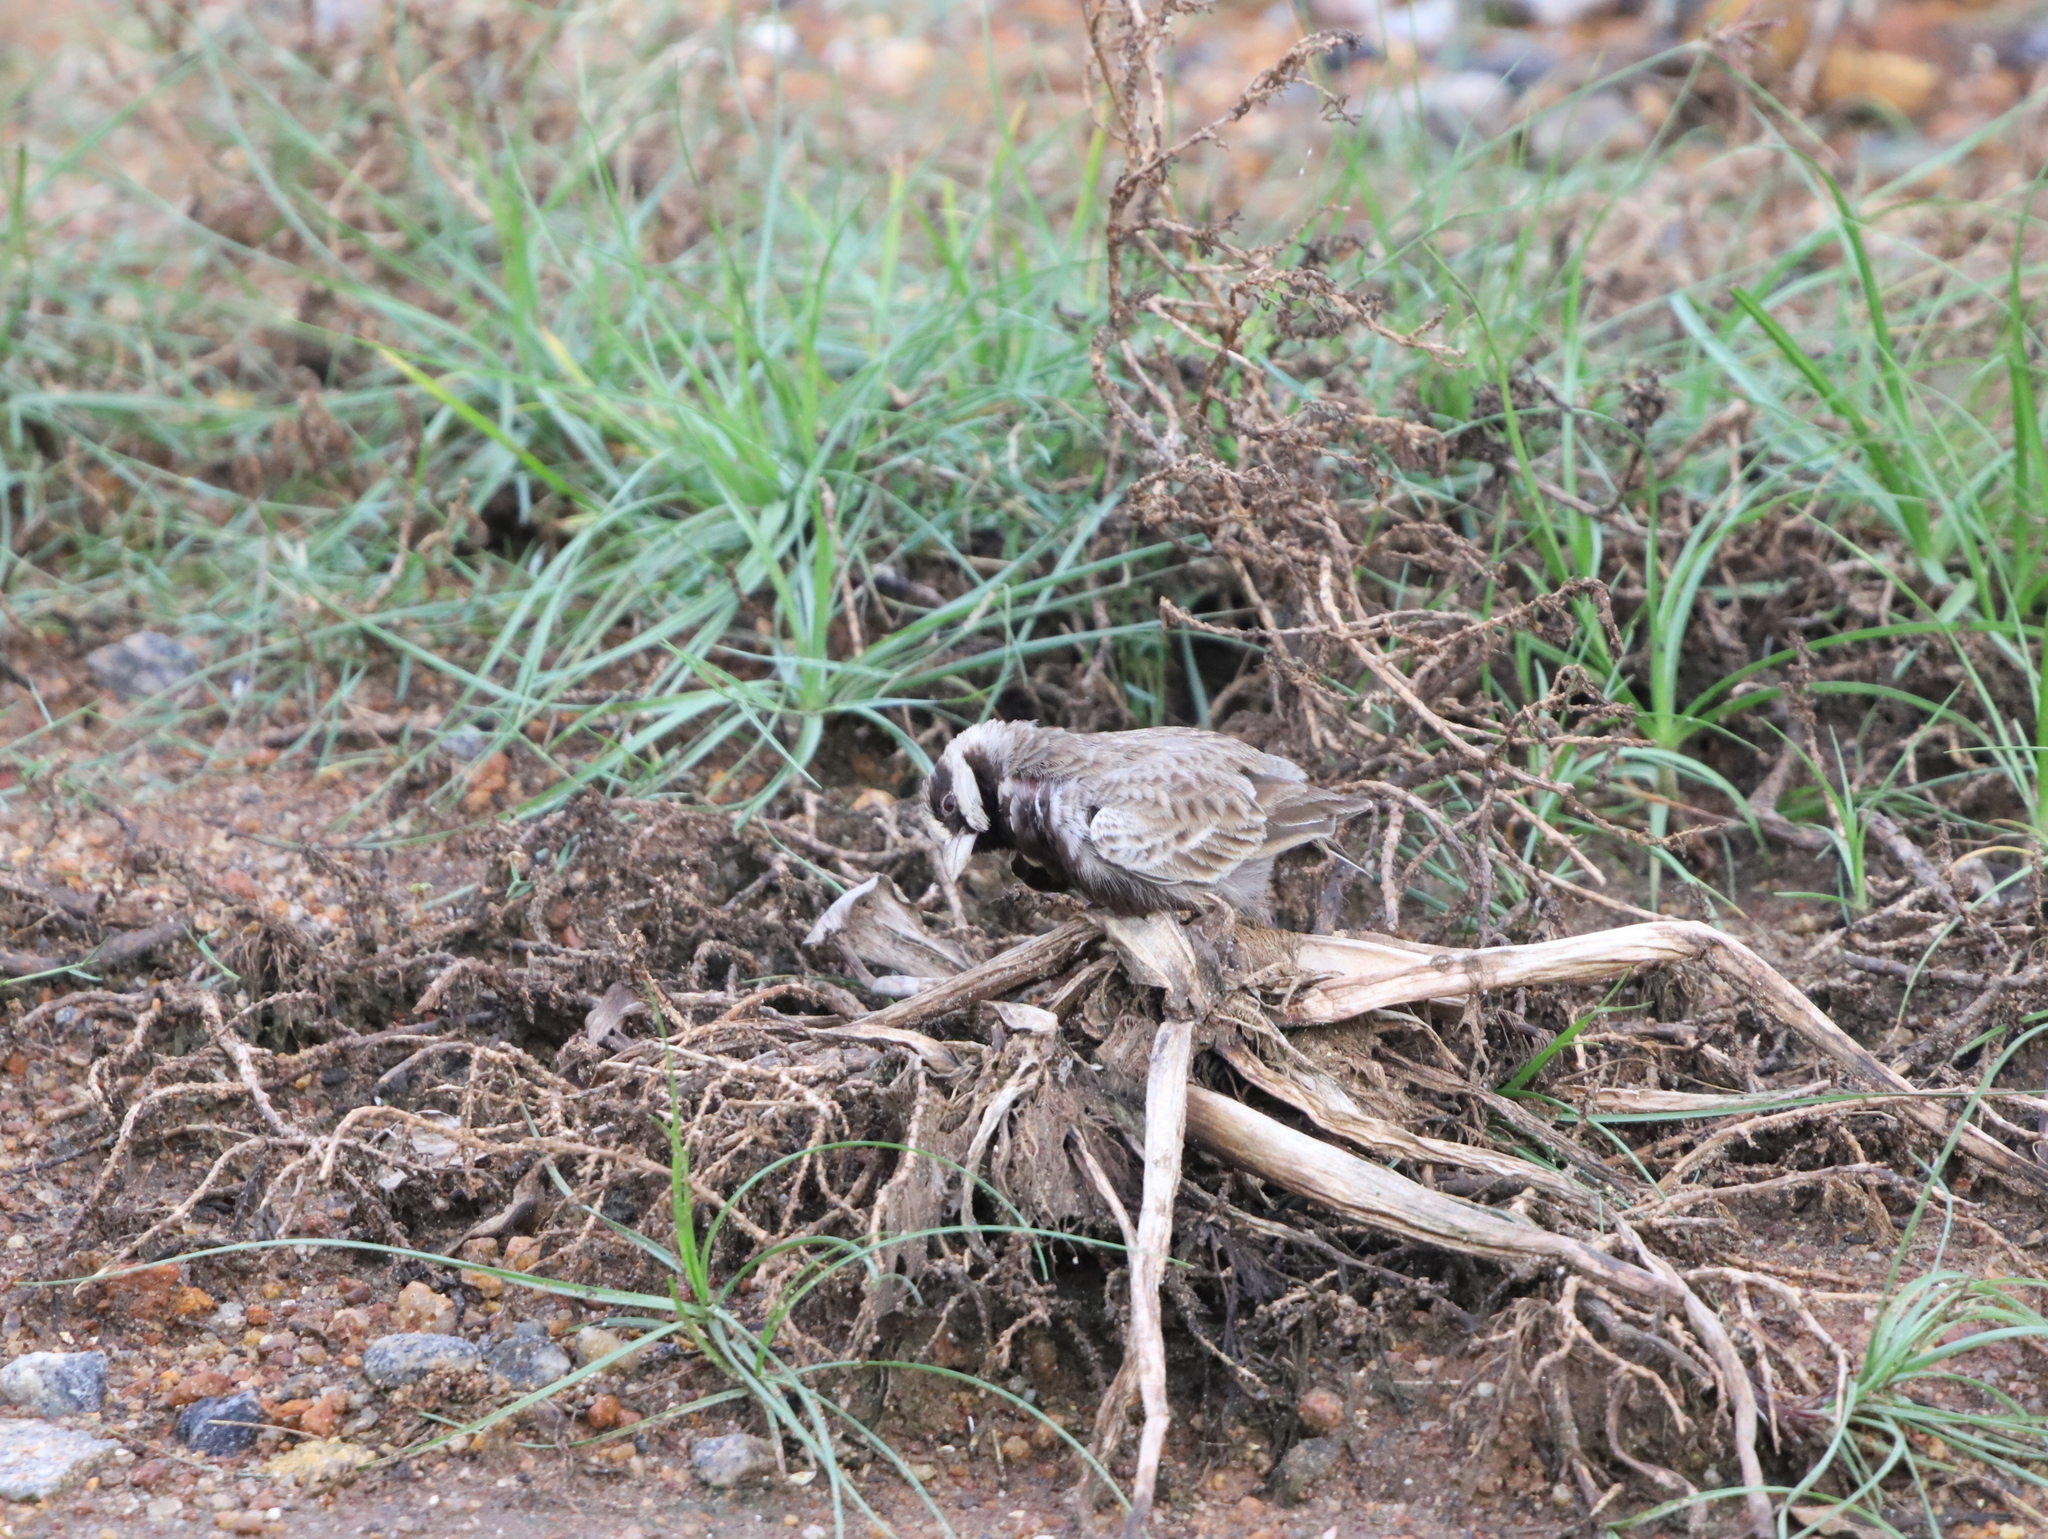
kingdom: Animalia
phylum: Chordata
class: Aves
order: Passeriformes
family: Alaudidae
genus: Eremopterix
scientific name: Eremopterix griseus
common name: Ashy-crowned sparrow-lark
